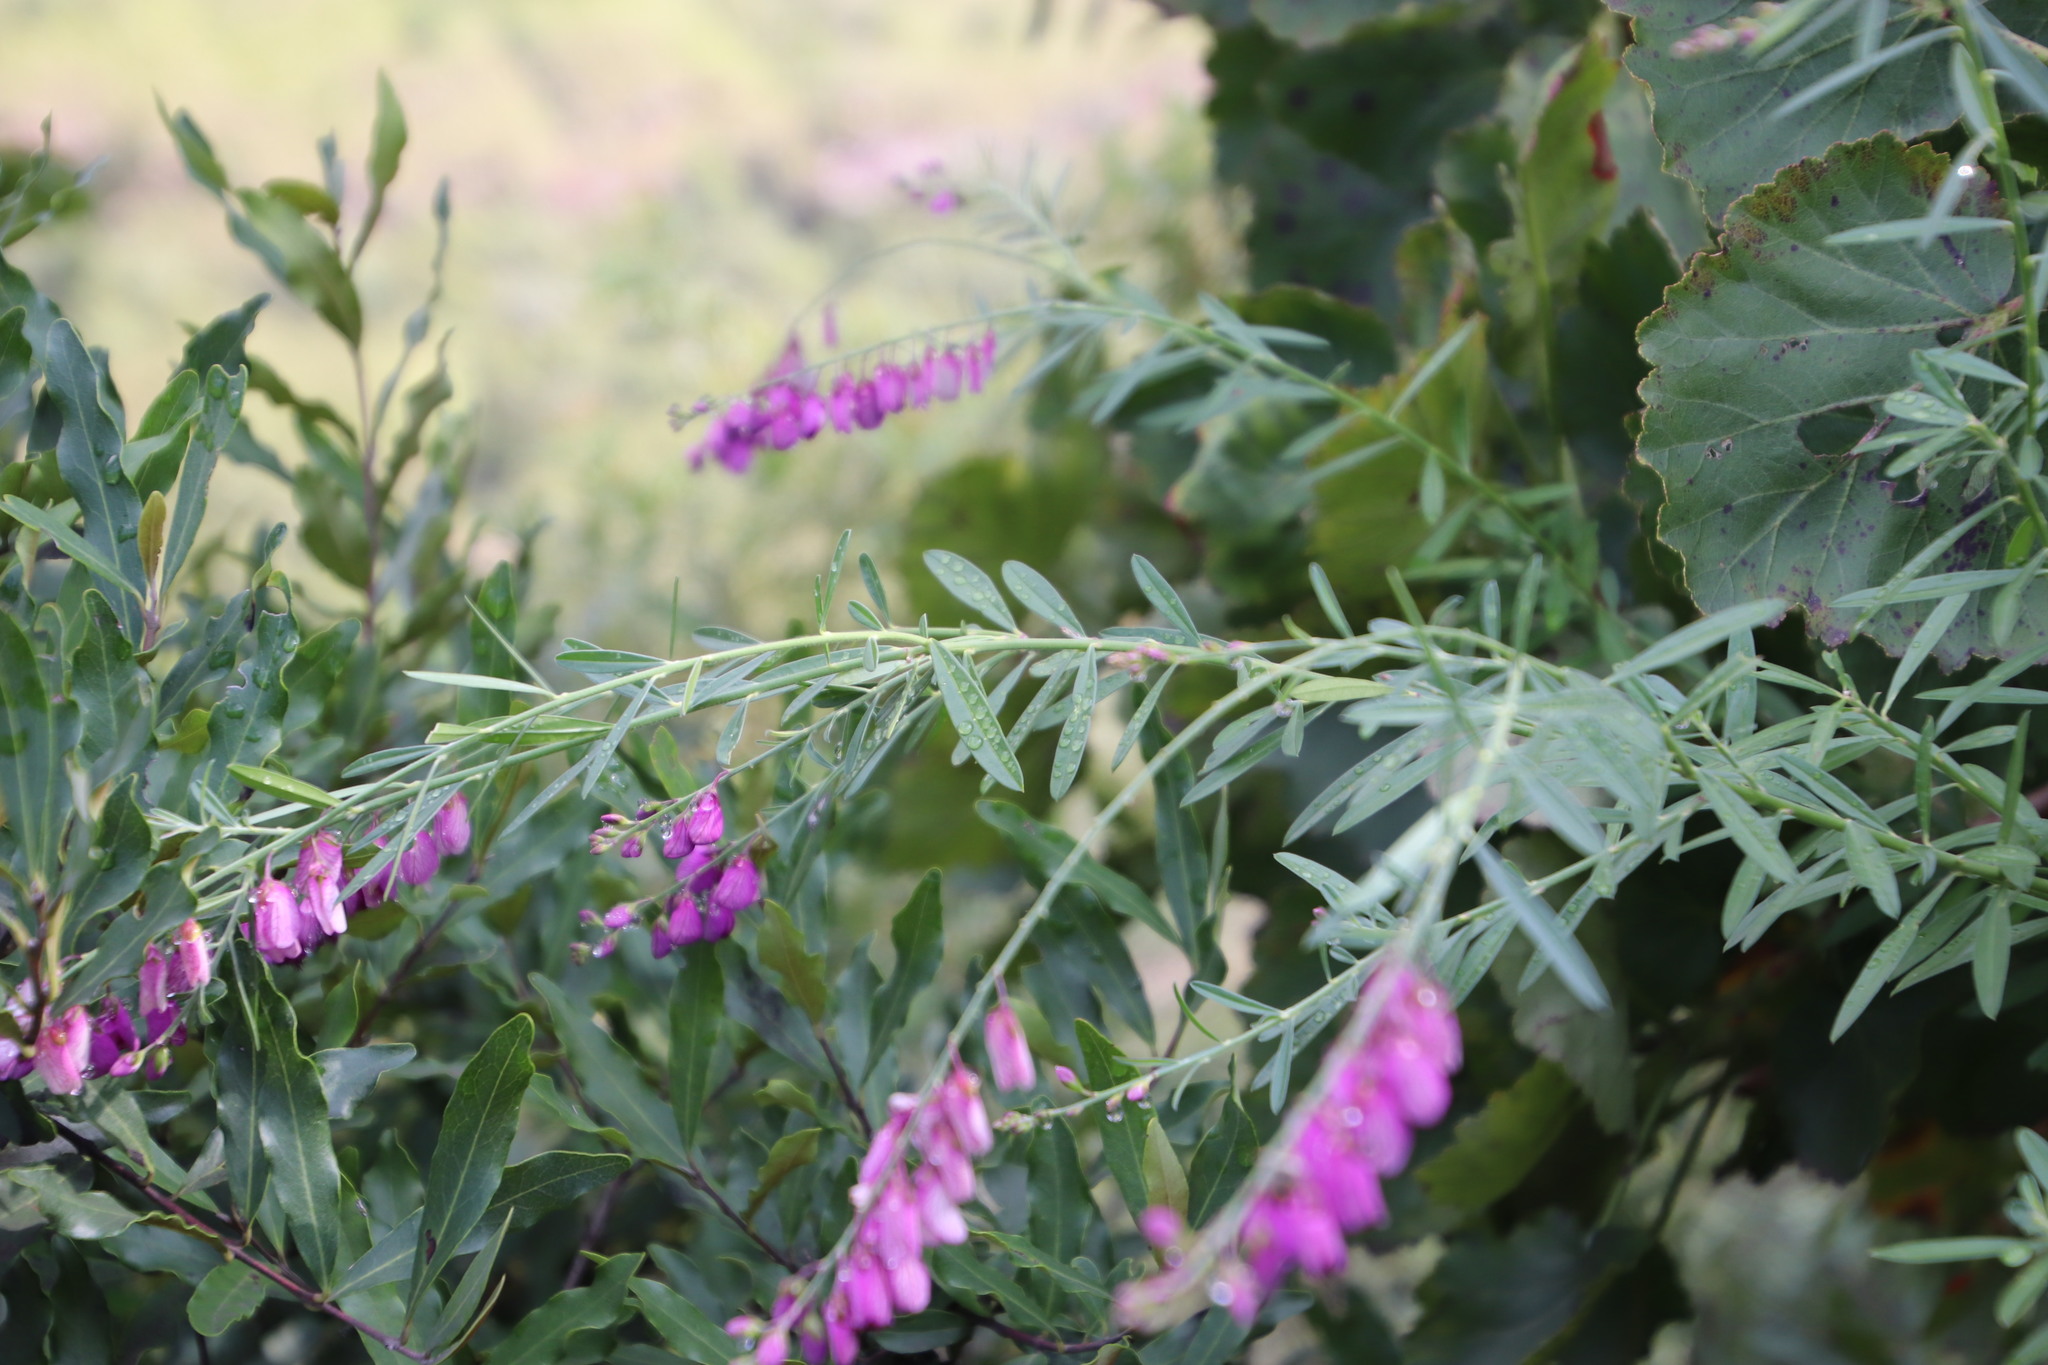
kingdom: Plantae
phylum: Tracheophyta
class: Magnoliopsida
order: Fabales
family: Polygalaceae
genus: Polygala
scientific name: Polygala virgata
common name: Milkwort
